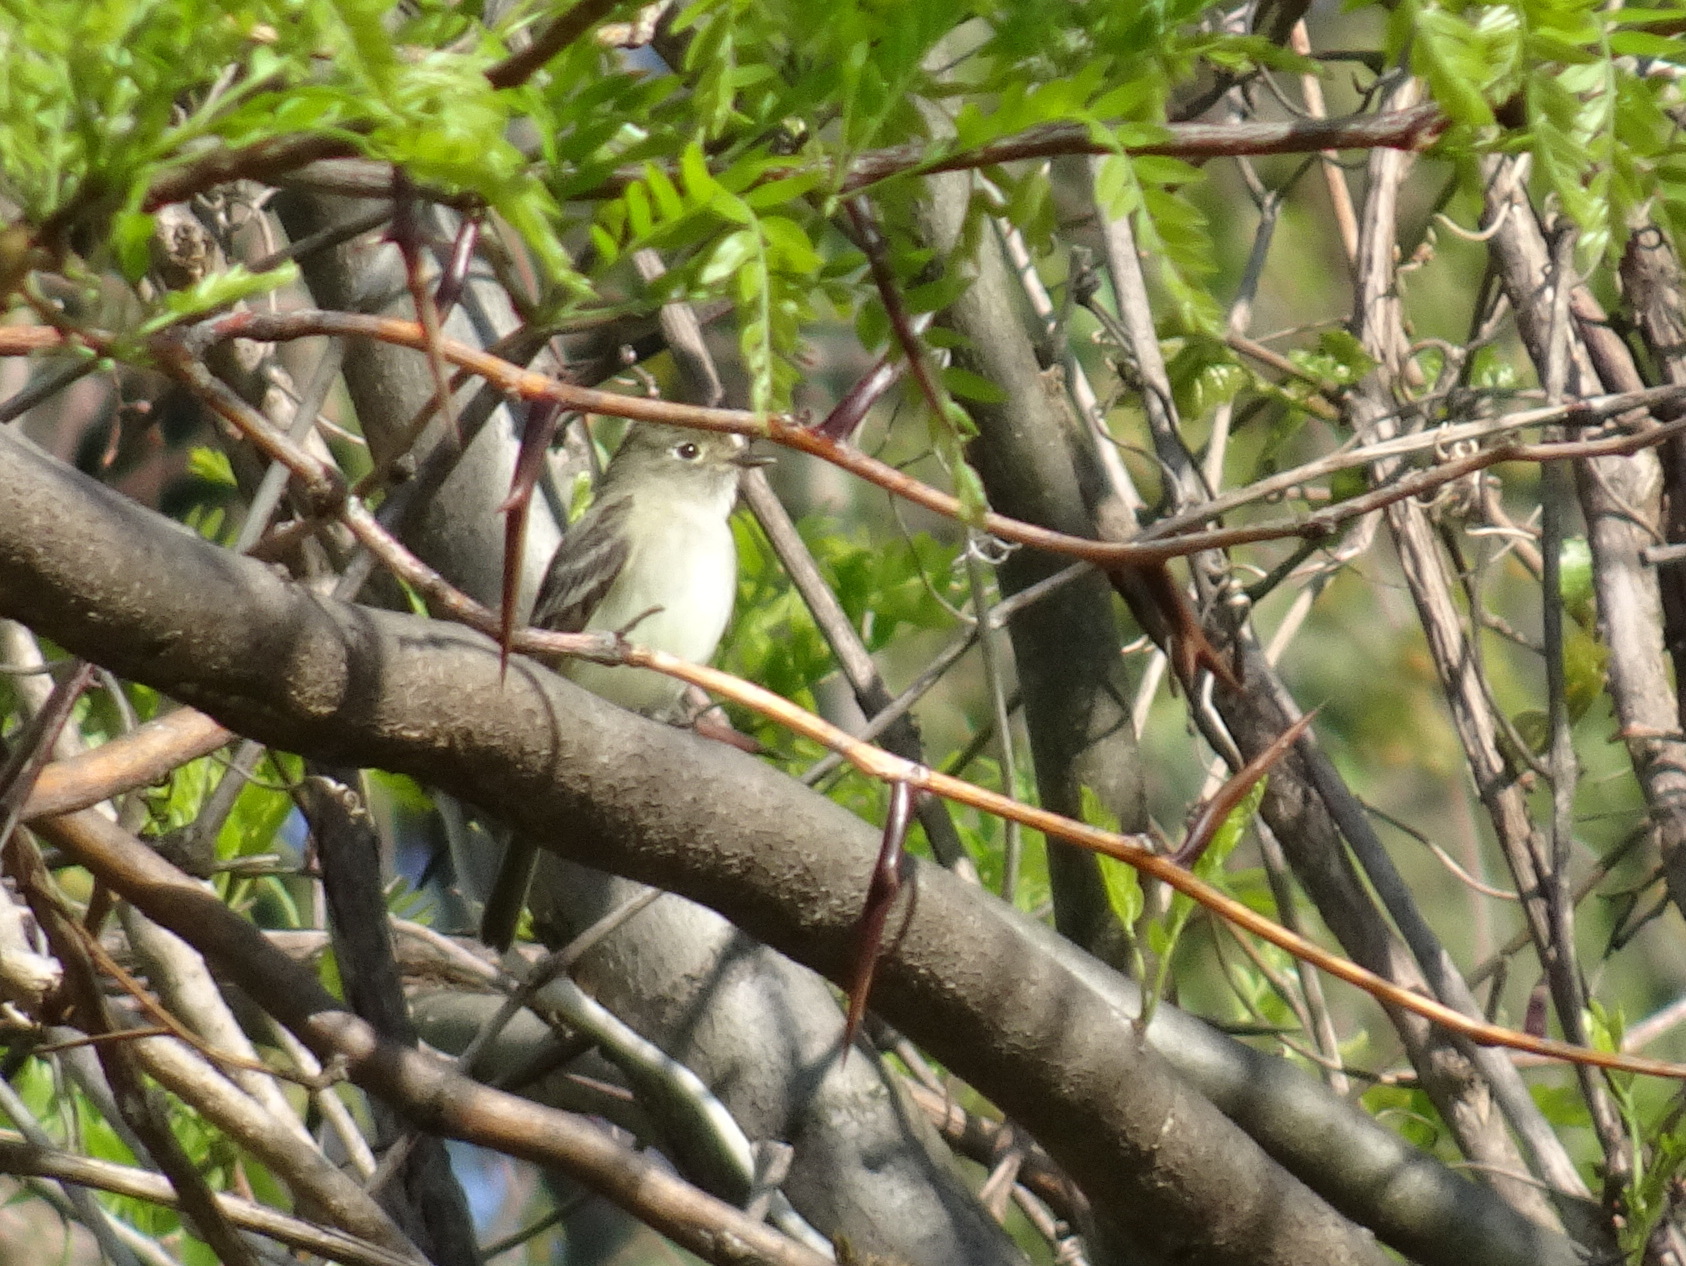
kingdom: Animalia
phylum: Chordata
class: Aves
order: Passeriformes
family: Tyrannidae
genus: Empidonax
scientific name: Empidonax minimus
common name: Least flycatcher
